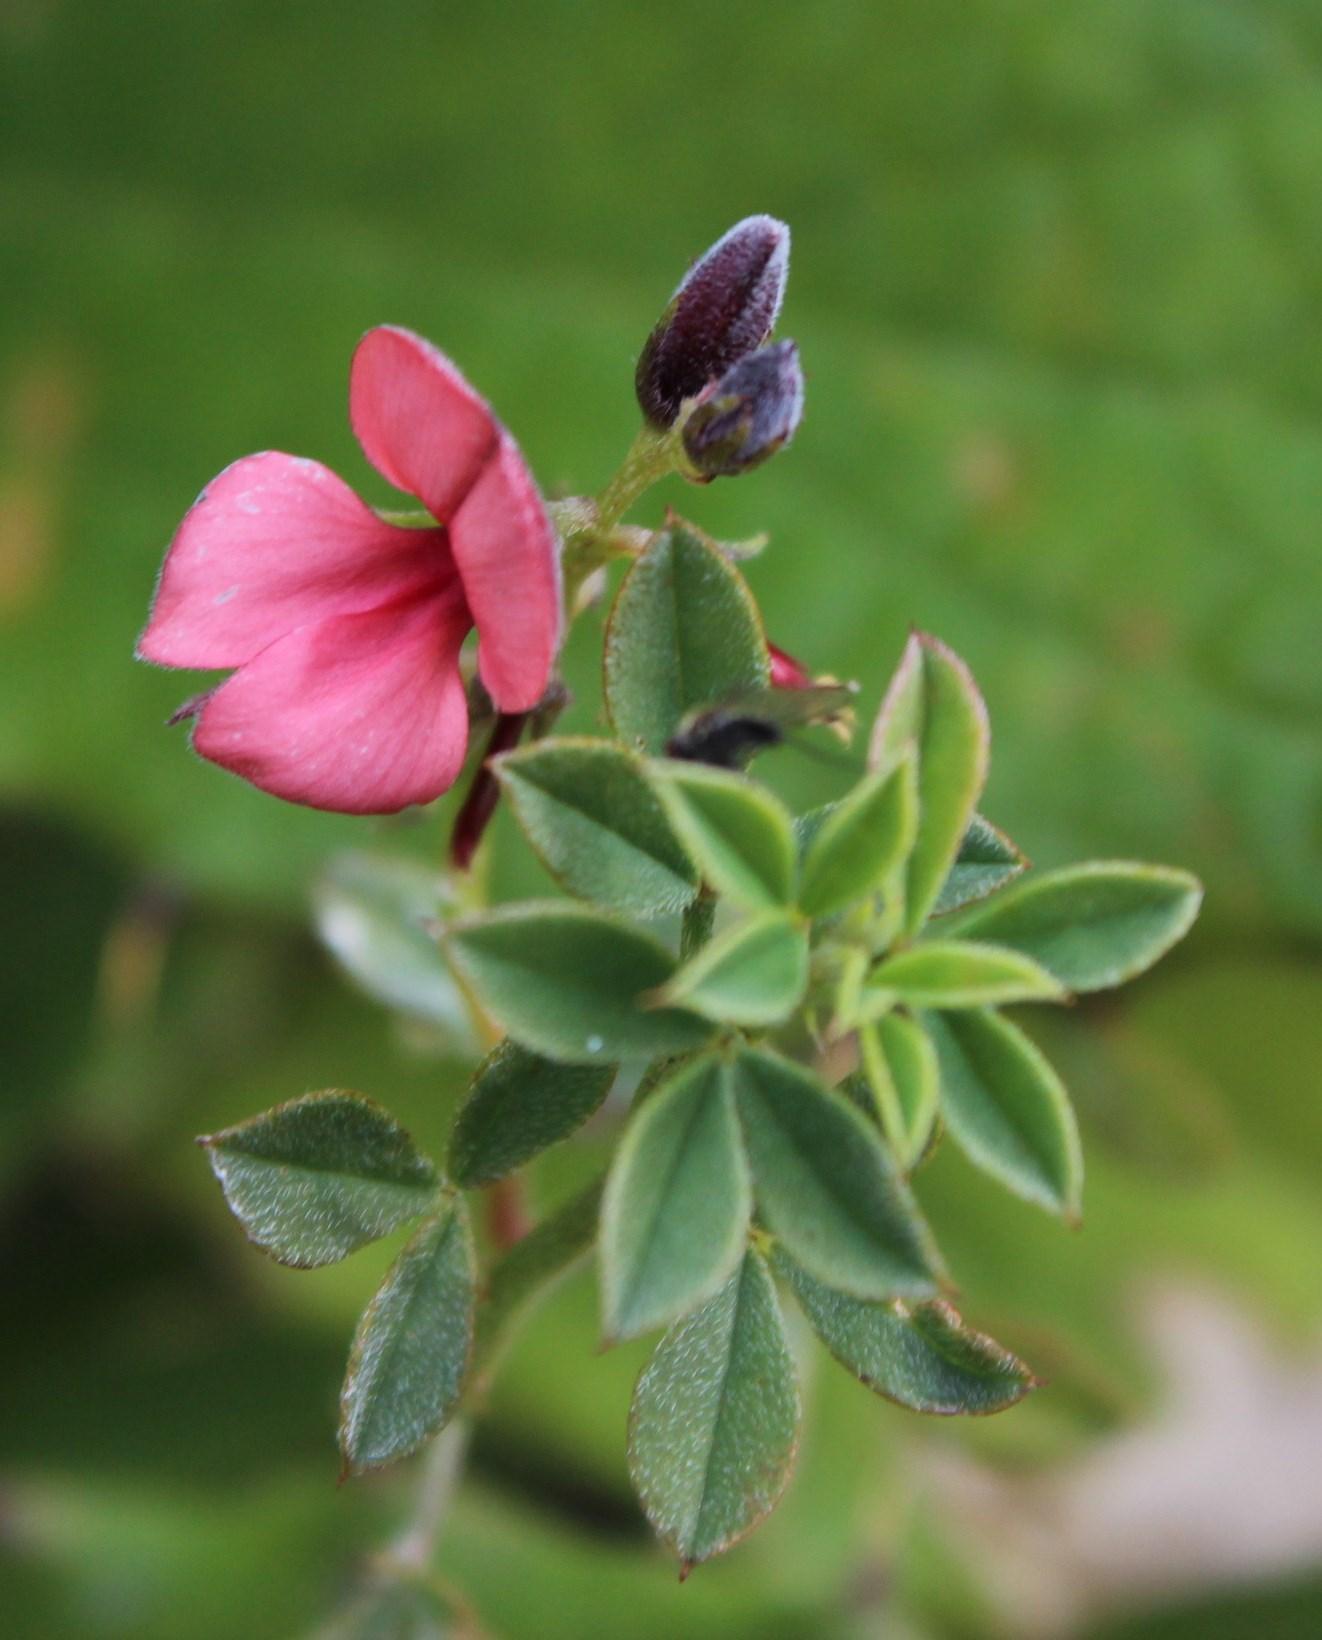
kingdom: Plantae
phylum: Tracheophyta
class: Magnoliopsida
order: Fabales
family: Fabaceae
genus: Indigofera
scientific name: Indigofera heterophylla
